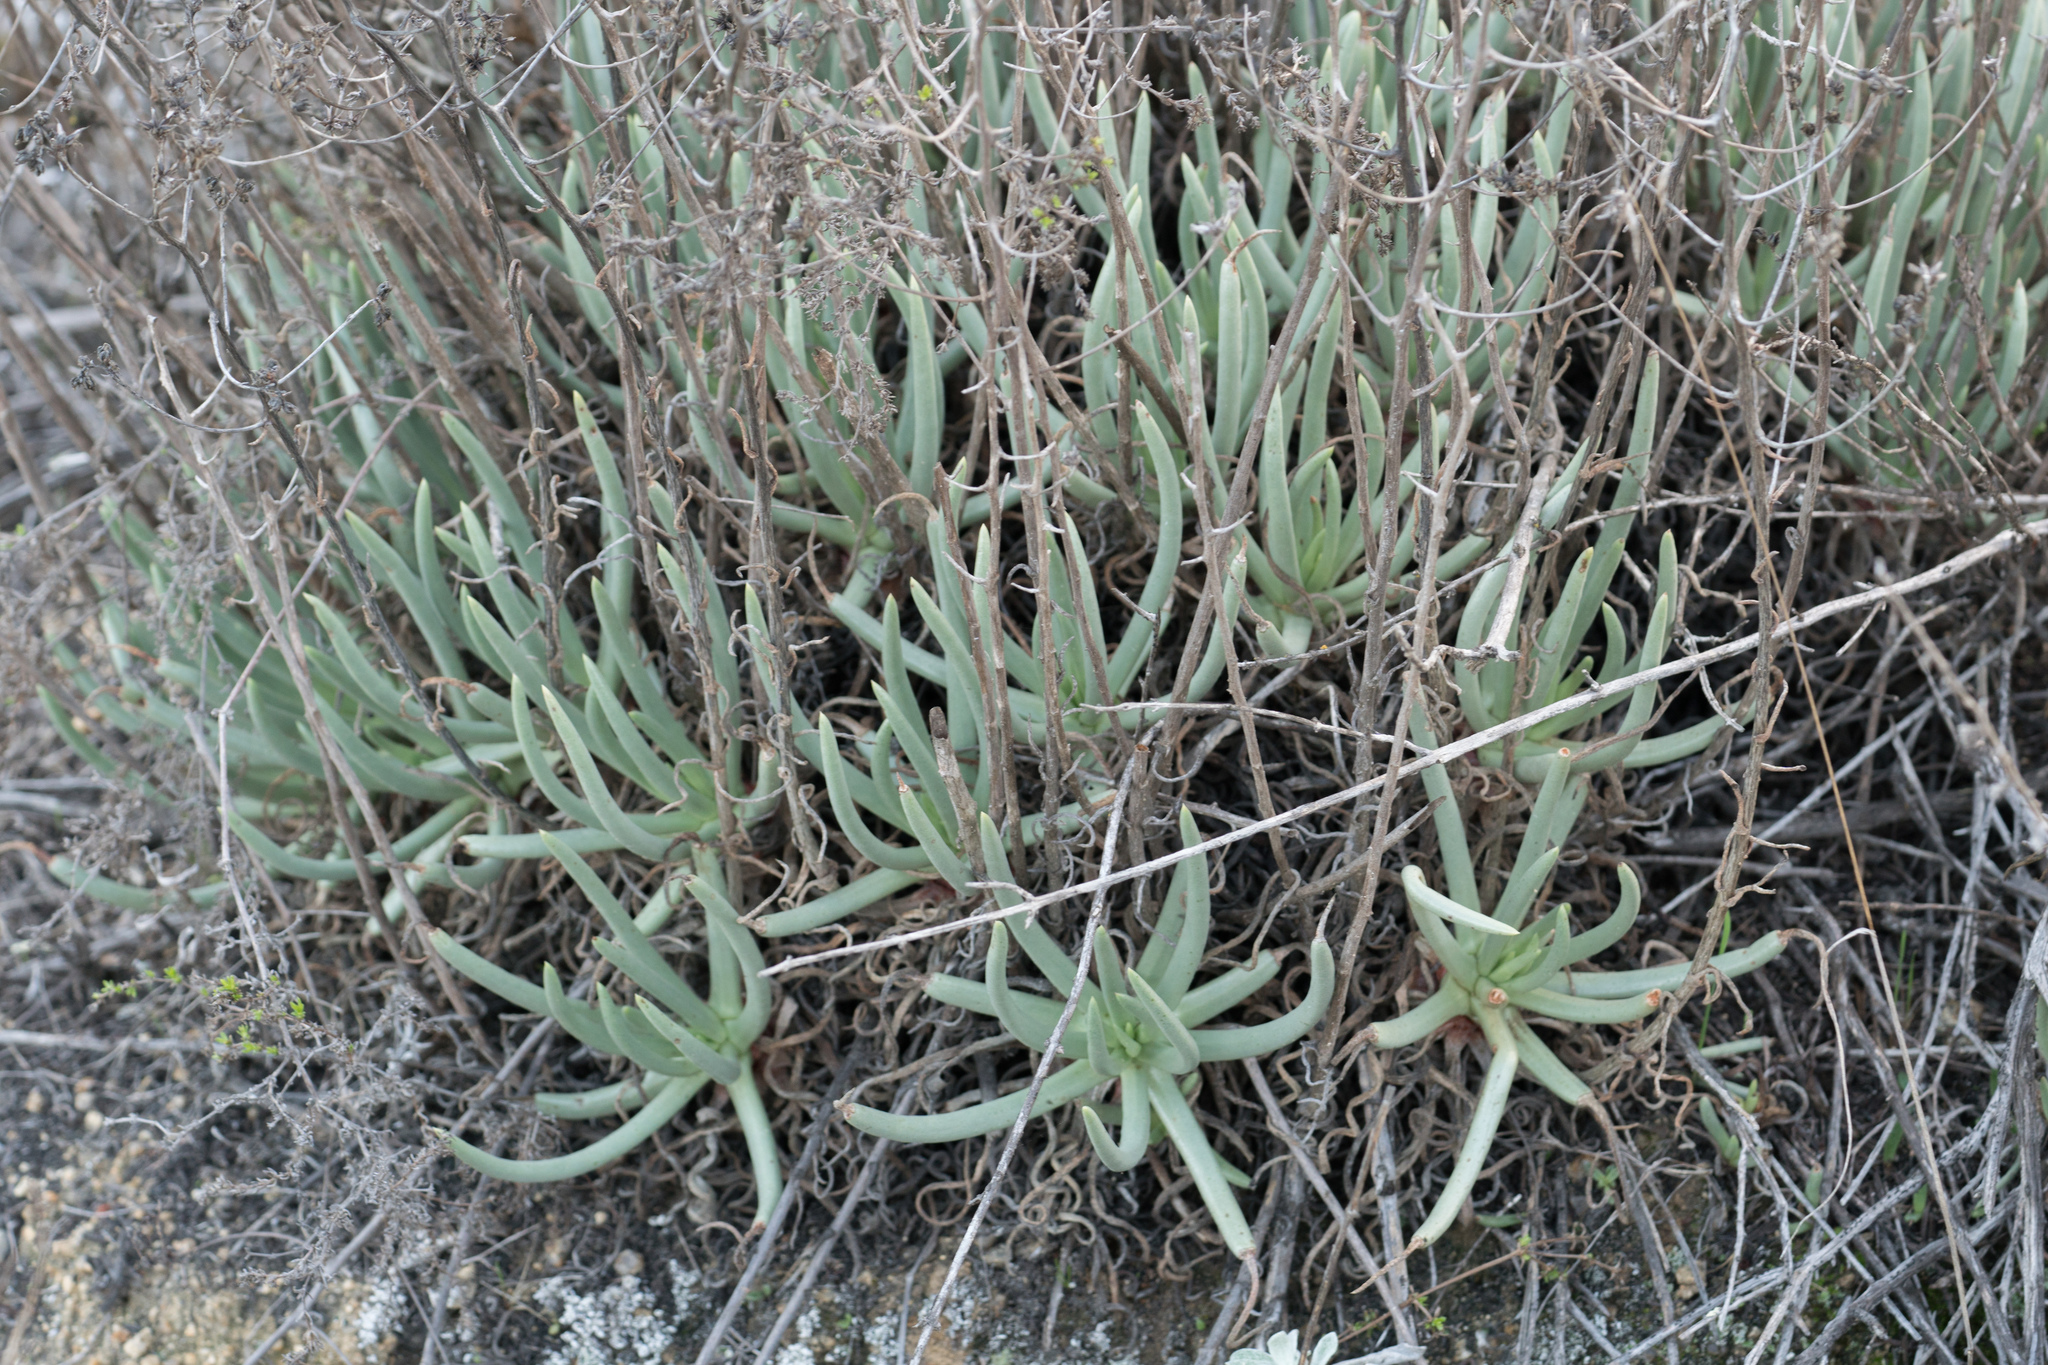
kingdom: Plantae
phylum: Tracheophyta
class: Magnoliopsida
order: Saxifragales
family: Crassulaceae
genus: Dudleya
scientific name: Dudleya edulis
